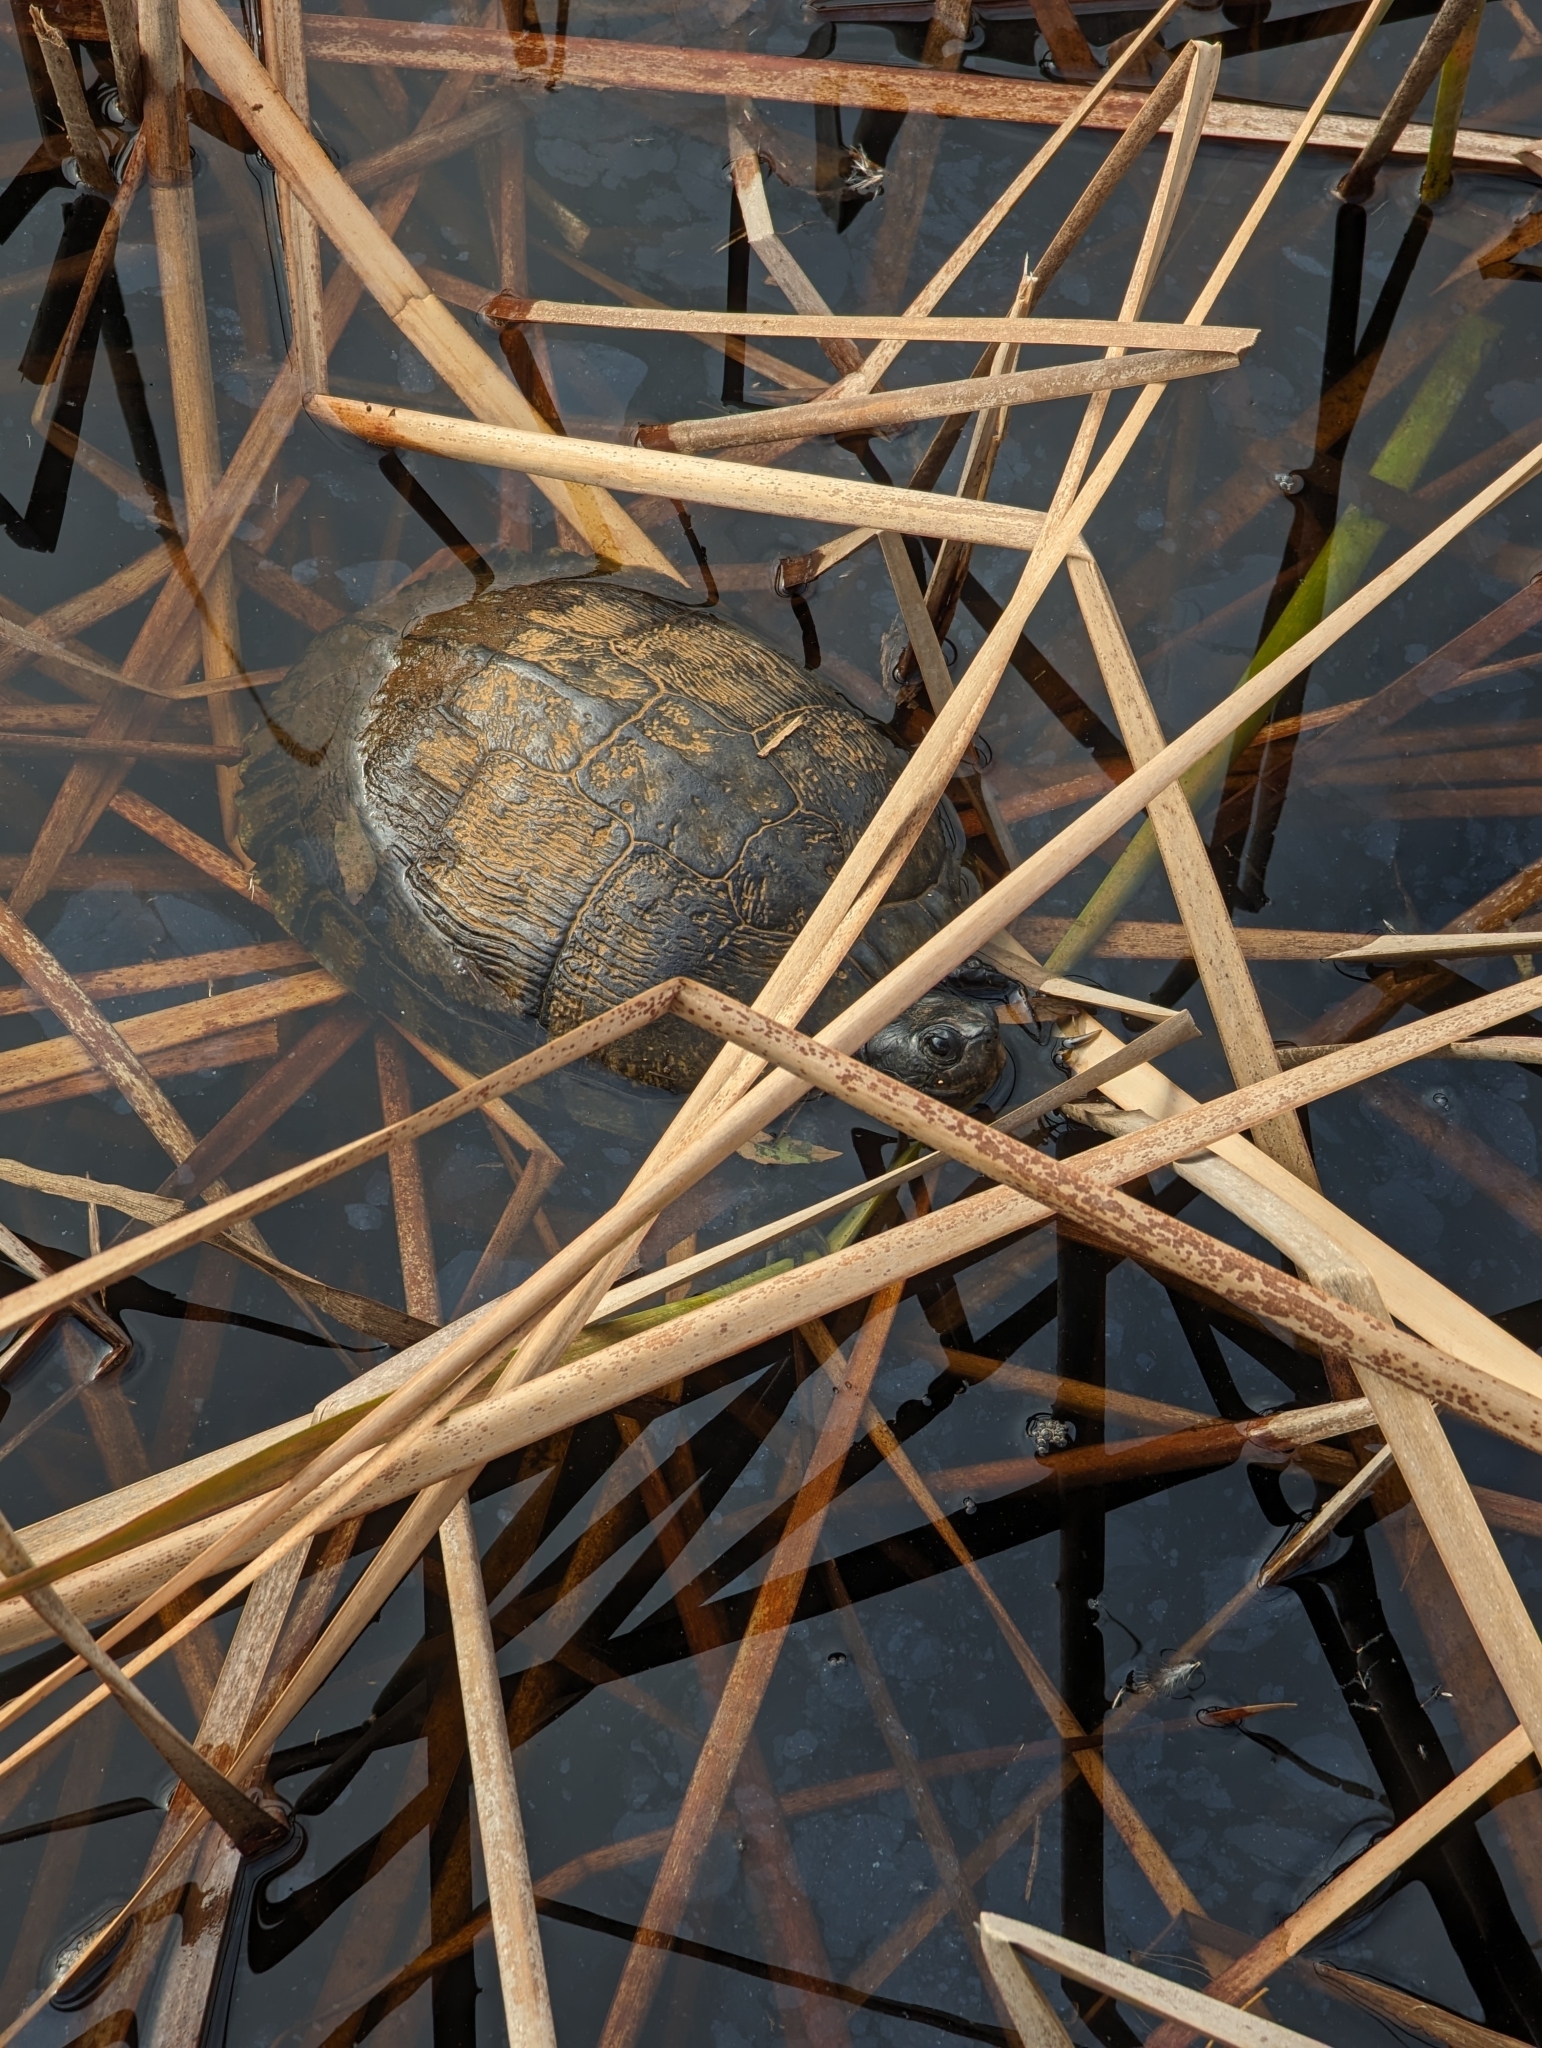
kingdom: Animalia
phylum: Chordata
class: Testudines
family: Emydidae
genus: Trachemys
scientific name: Trachemys scripta
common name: Slider
